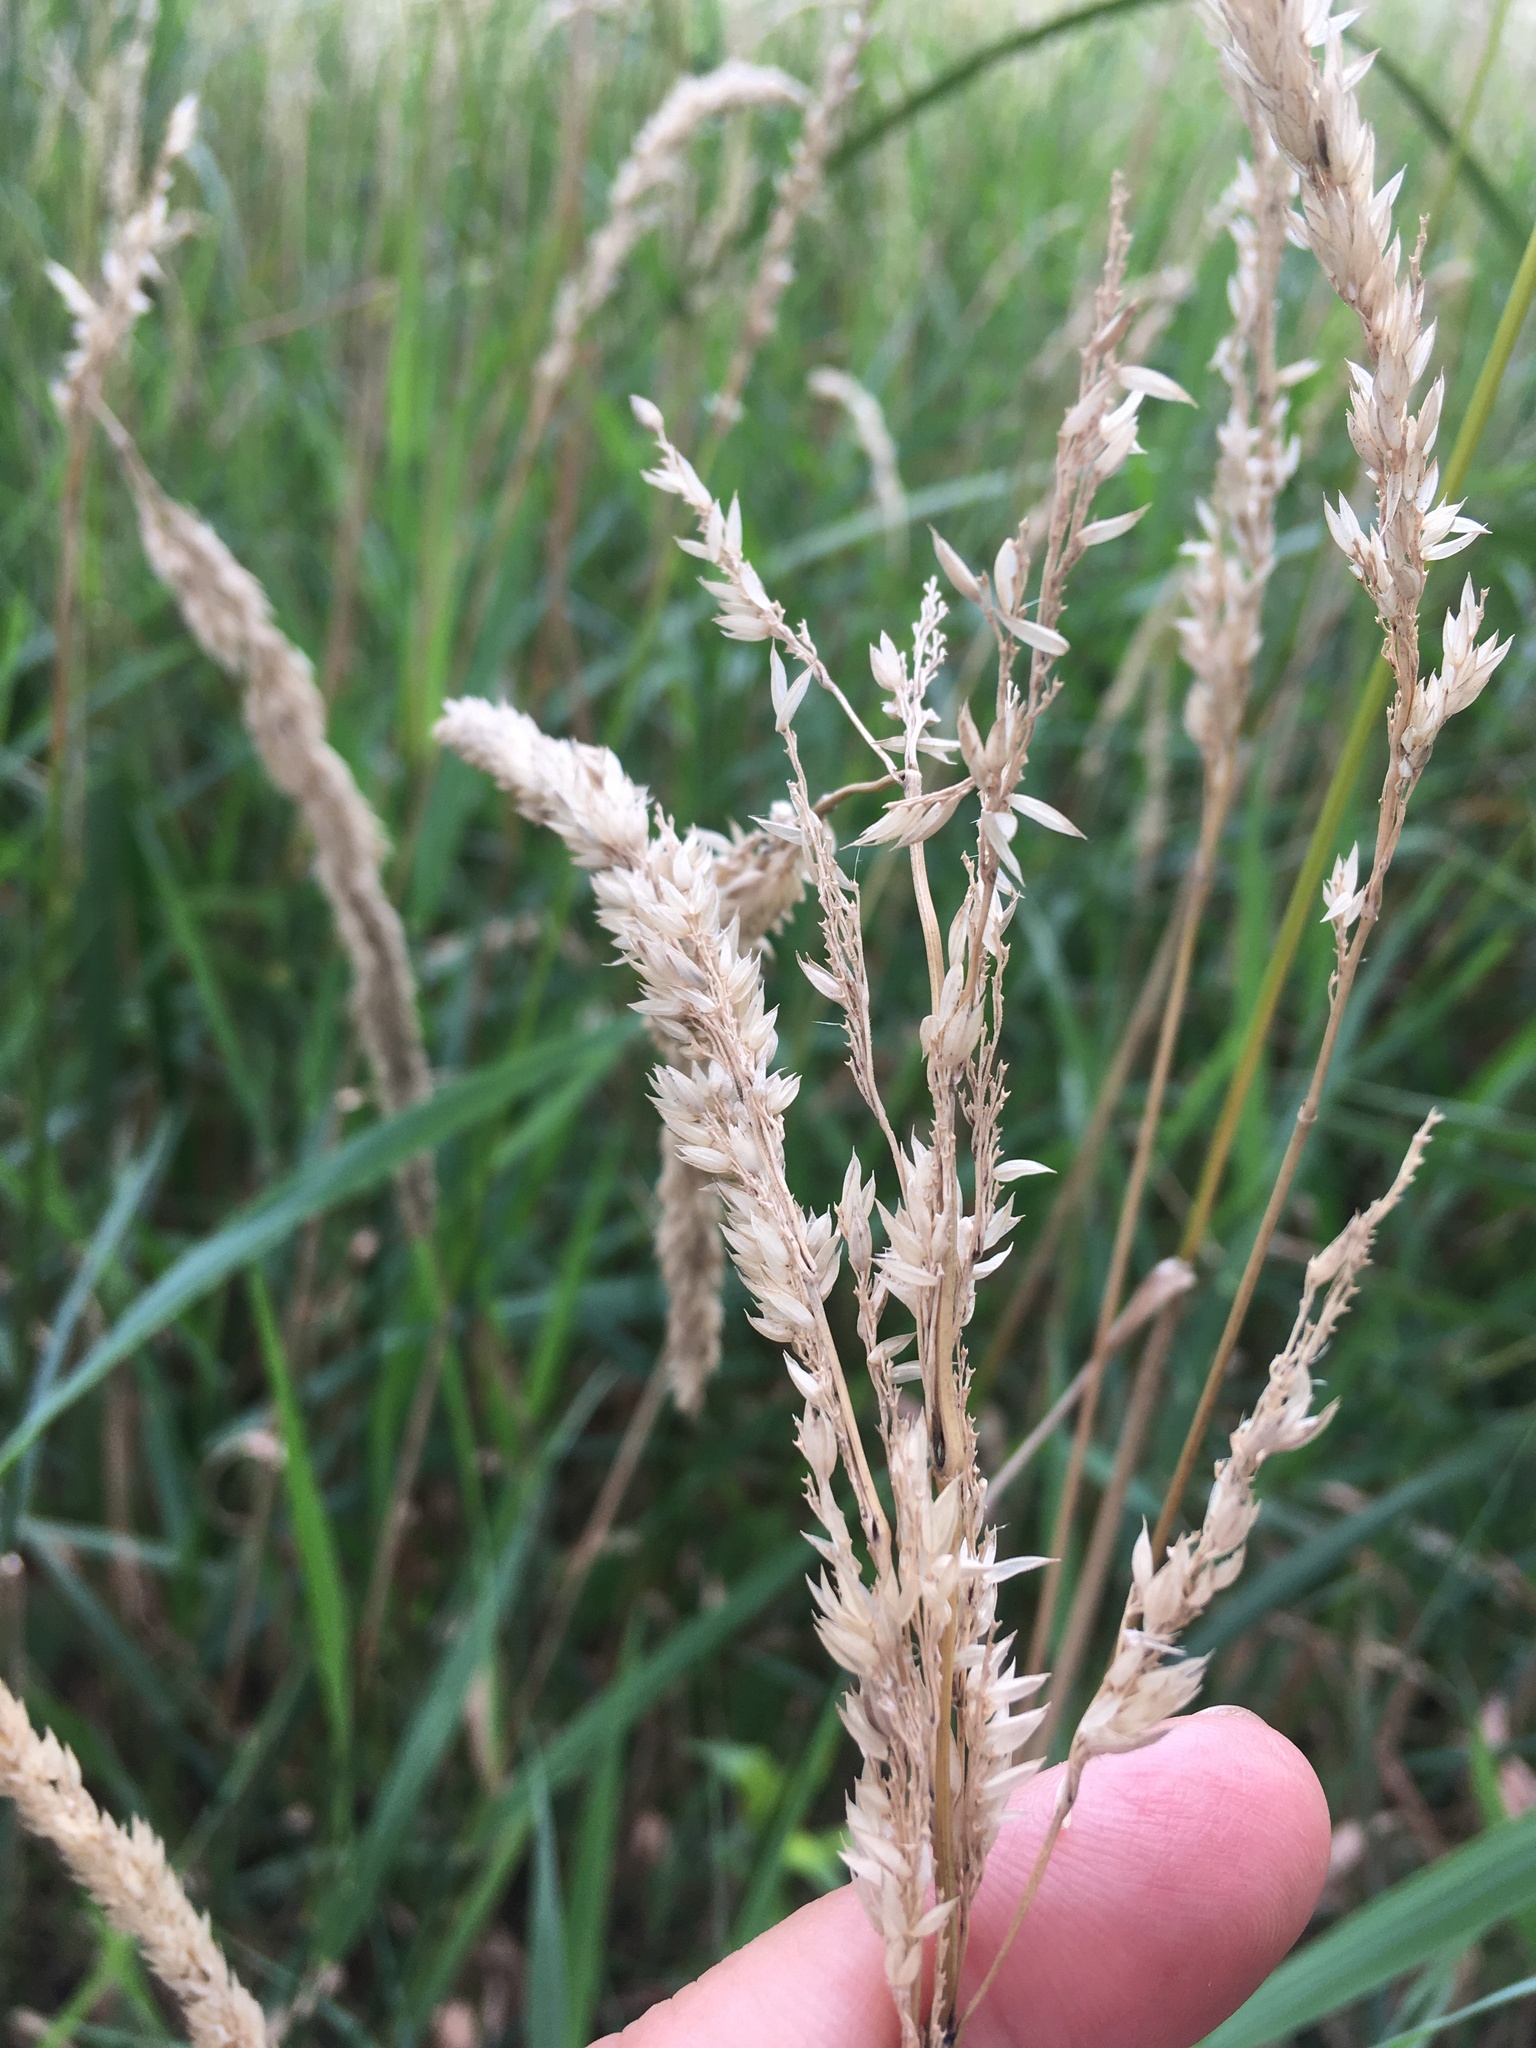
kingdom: Plantae
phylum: Tracheophyta
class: Liliopsida
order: Poales
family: Poaceae
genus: Phalaris
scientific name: Phalaris arundinacea
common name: Reed canary-grass
